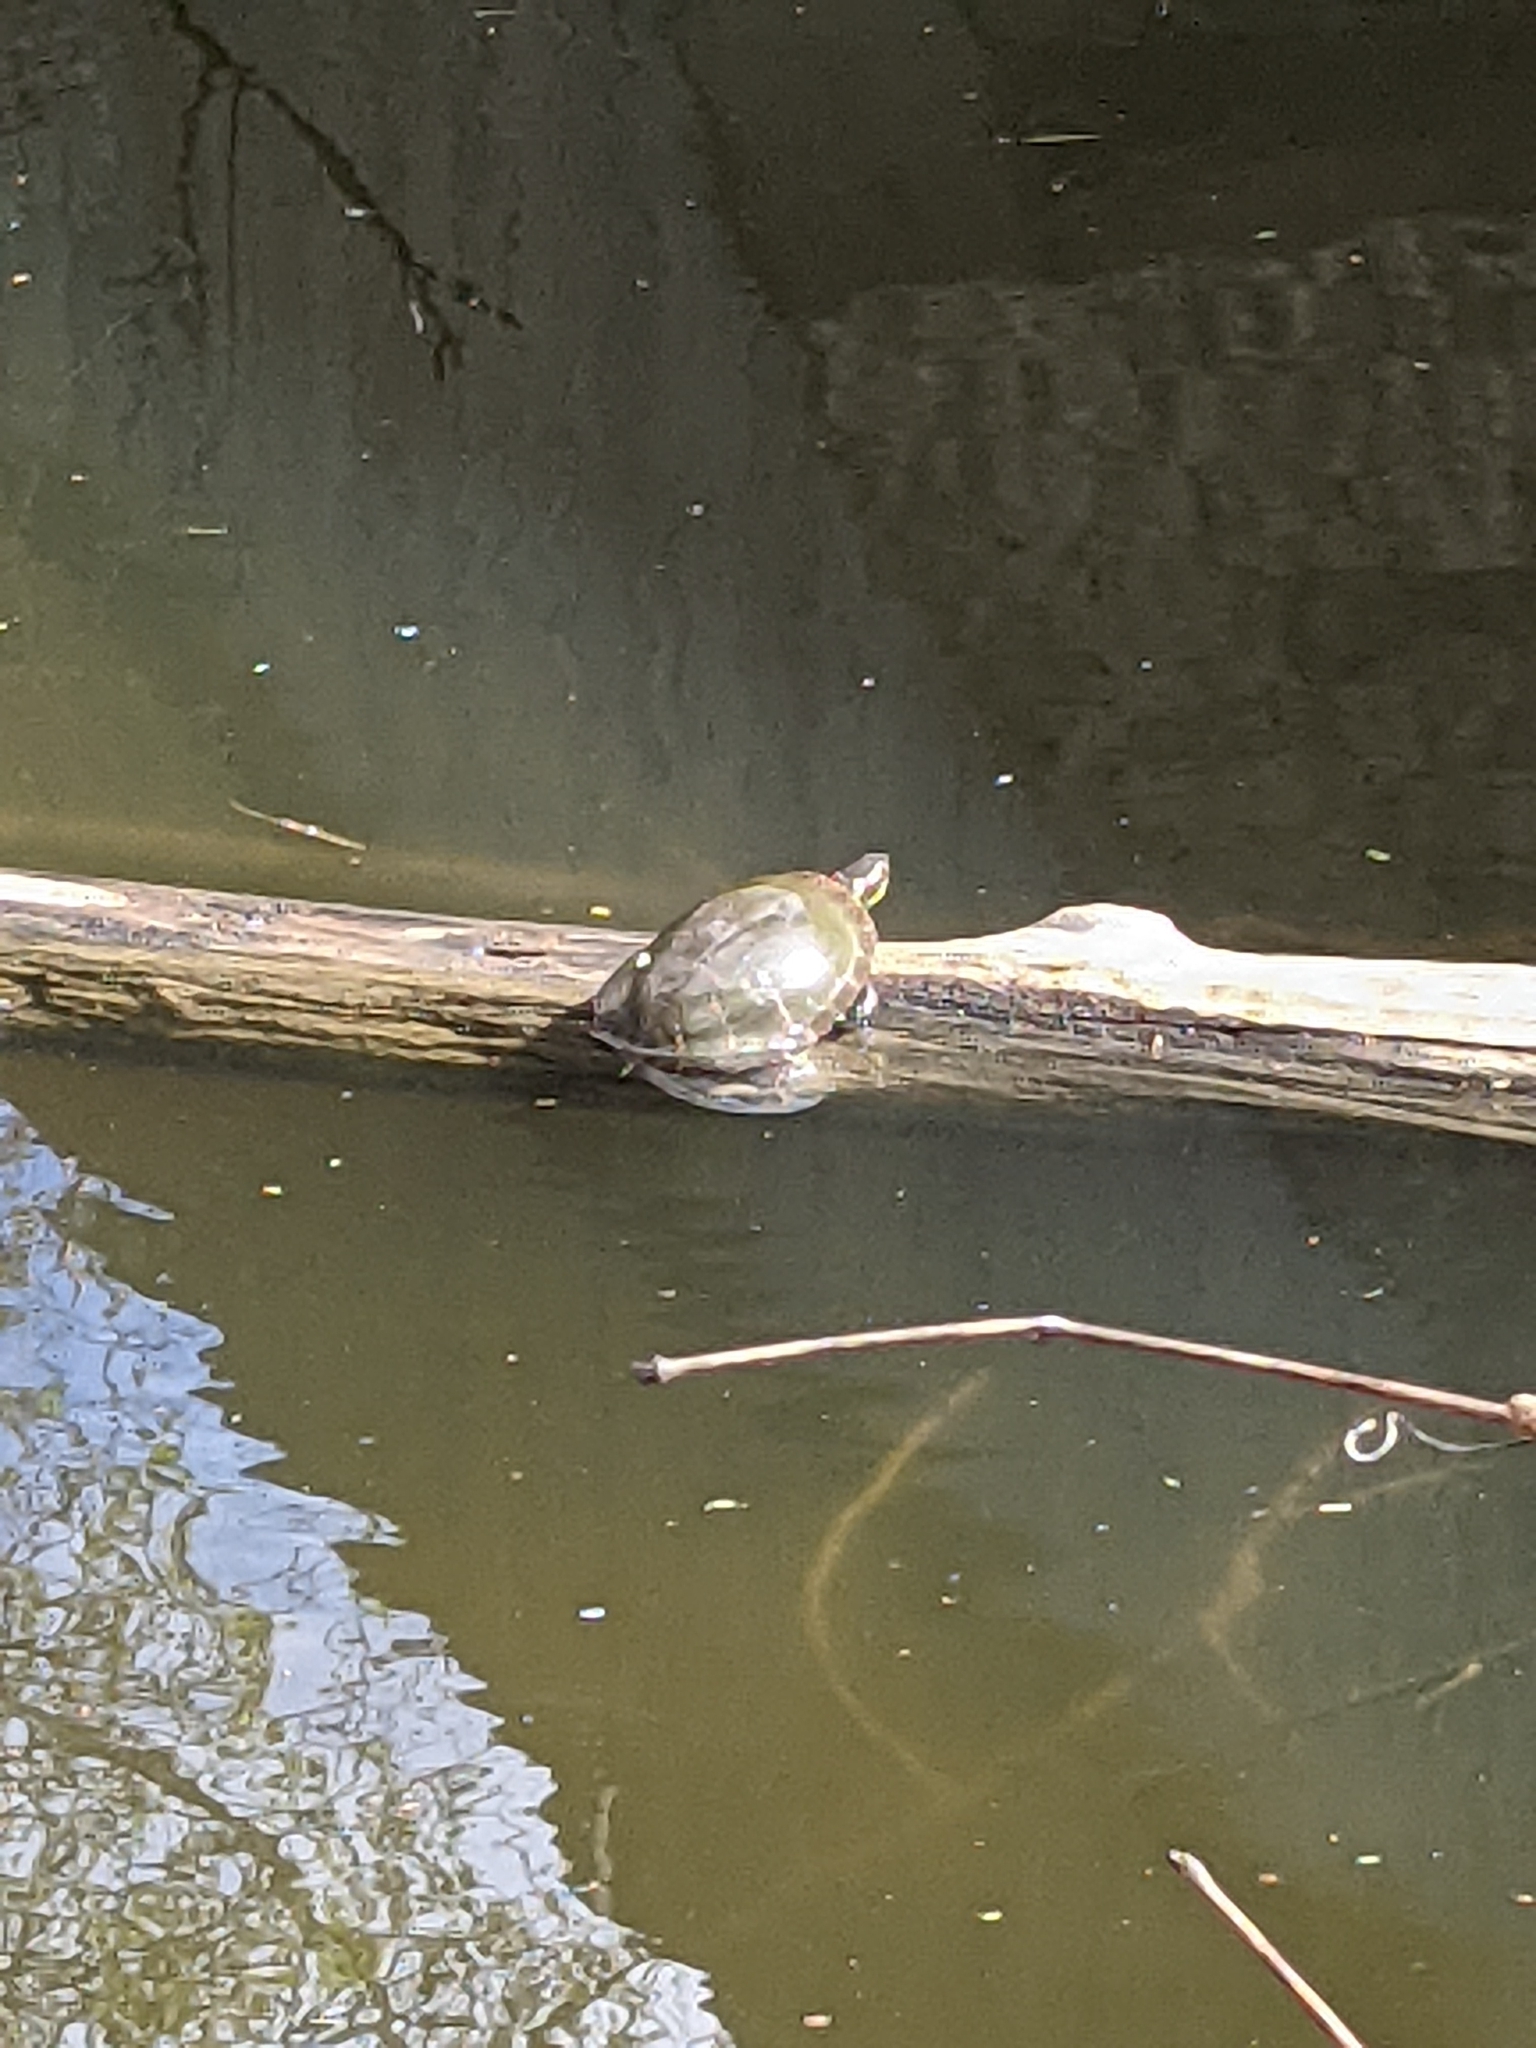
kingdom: Animalia
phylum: Chordata
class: Testudines
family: Emydidae
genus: Chrysemys
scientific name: Chrysemys picta
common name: Painted turtle
